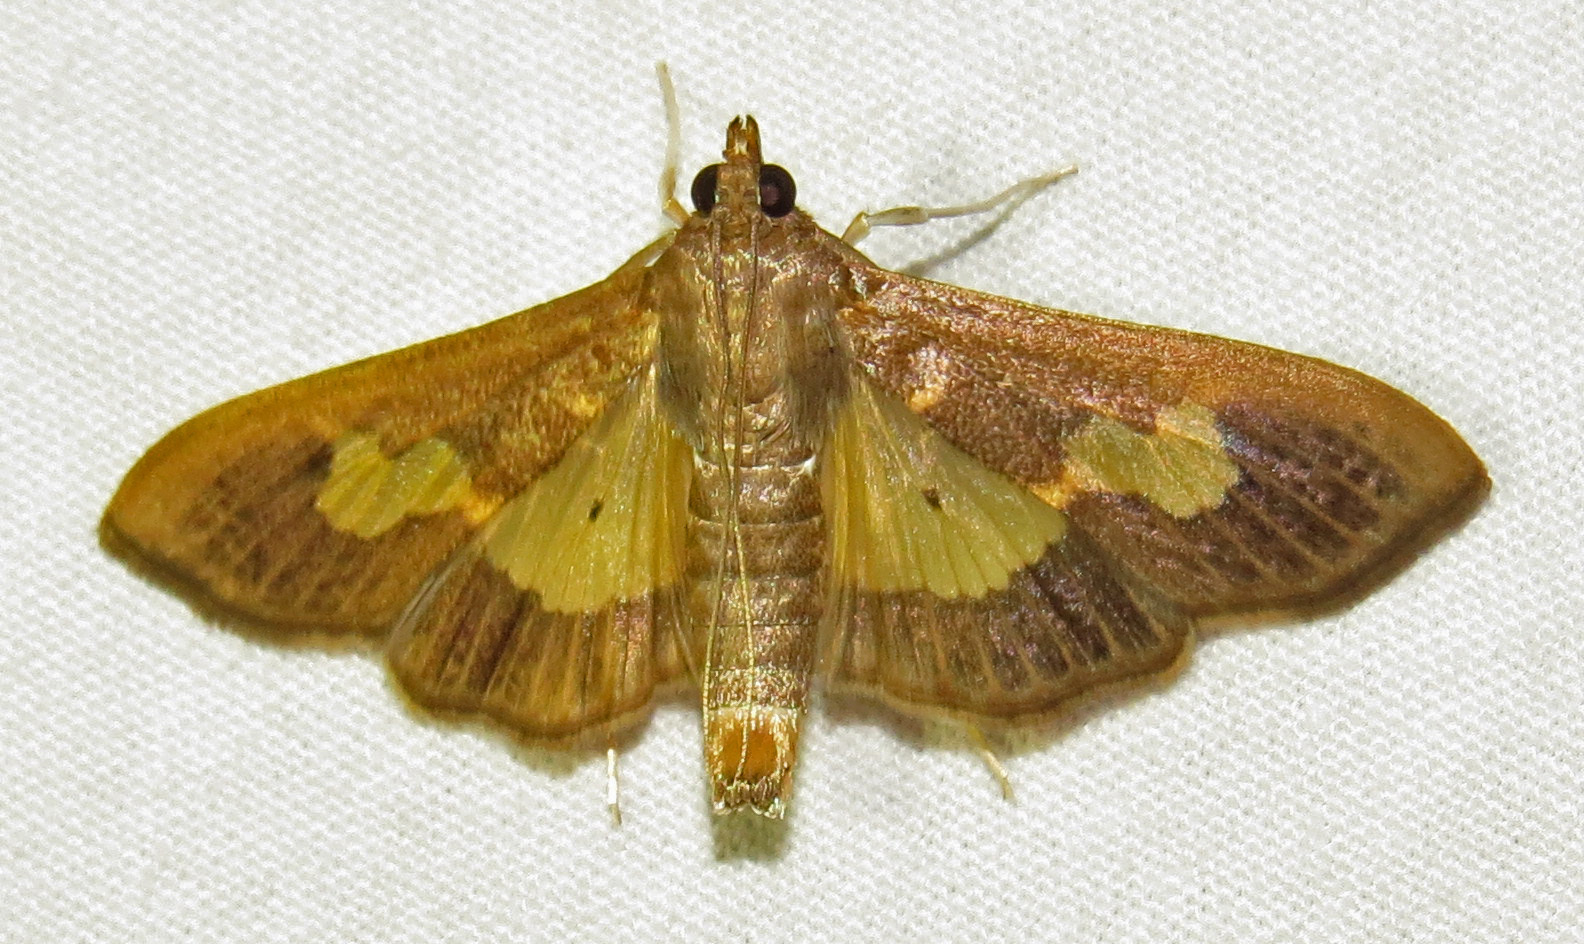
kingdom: Animalia
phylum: Arthropoda
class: Insecta
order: Lepidoptera
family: Crambidae
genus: Cryptographis
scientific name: Cryptographis nitidalis
